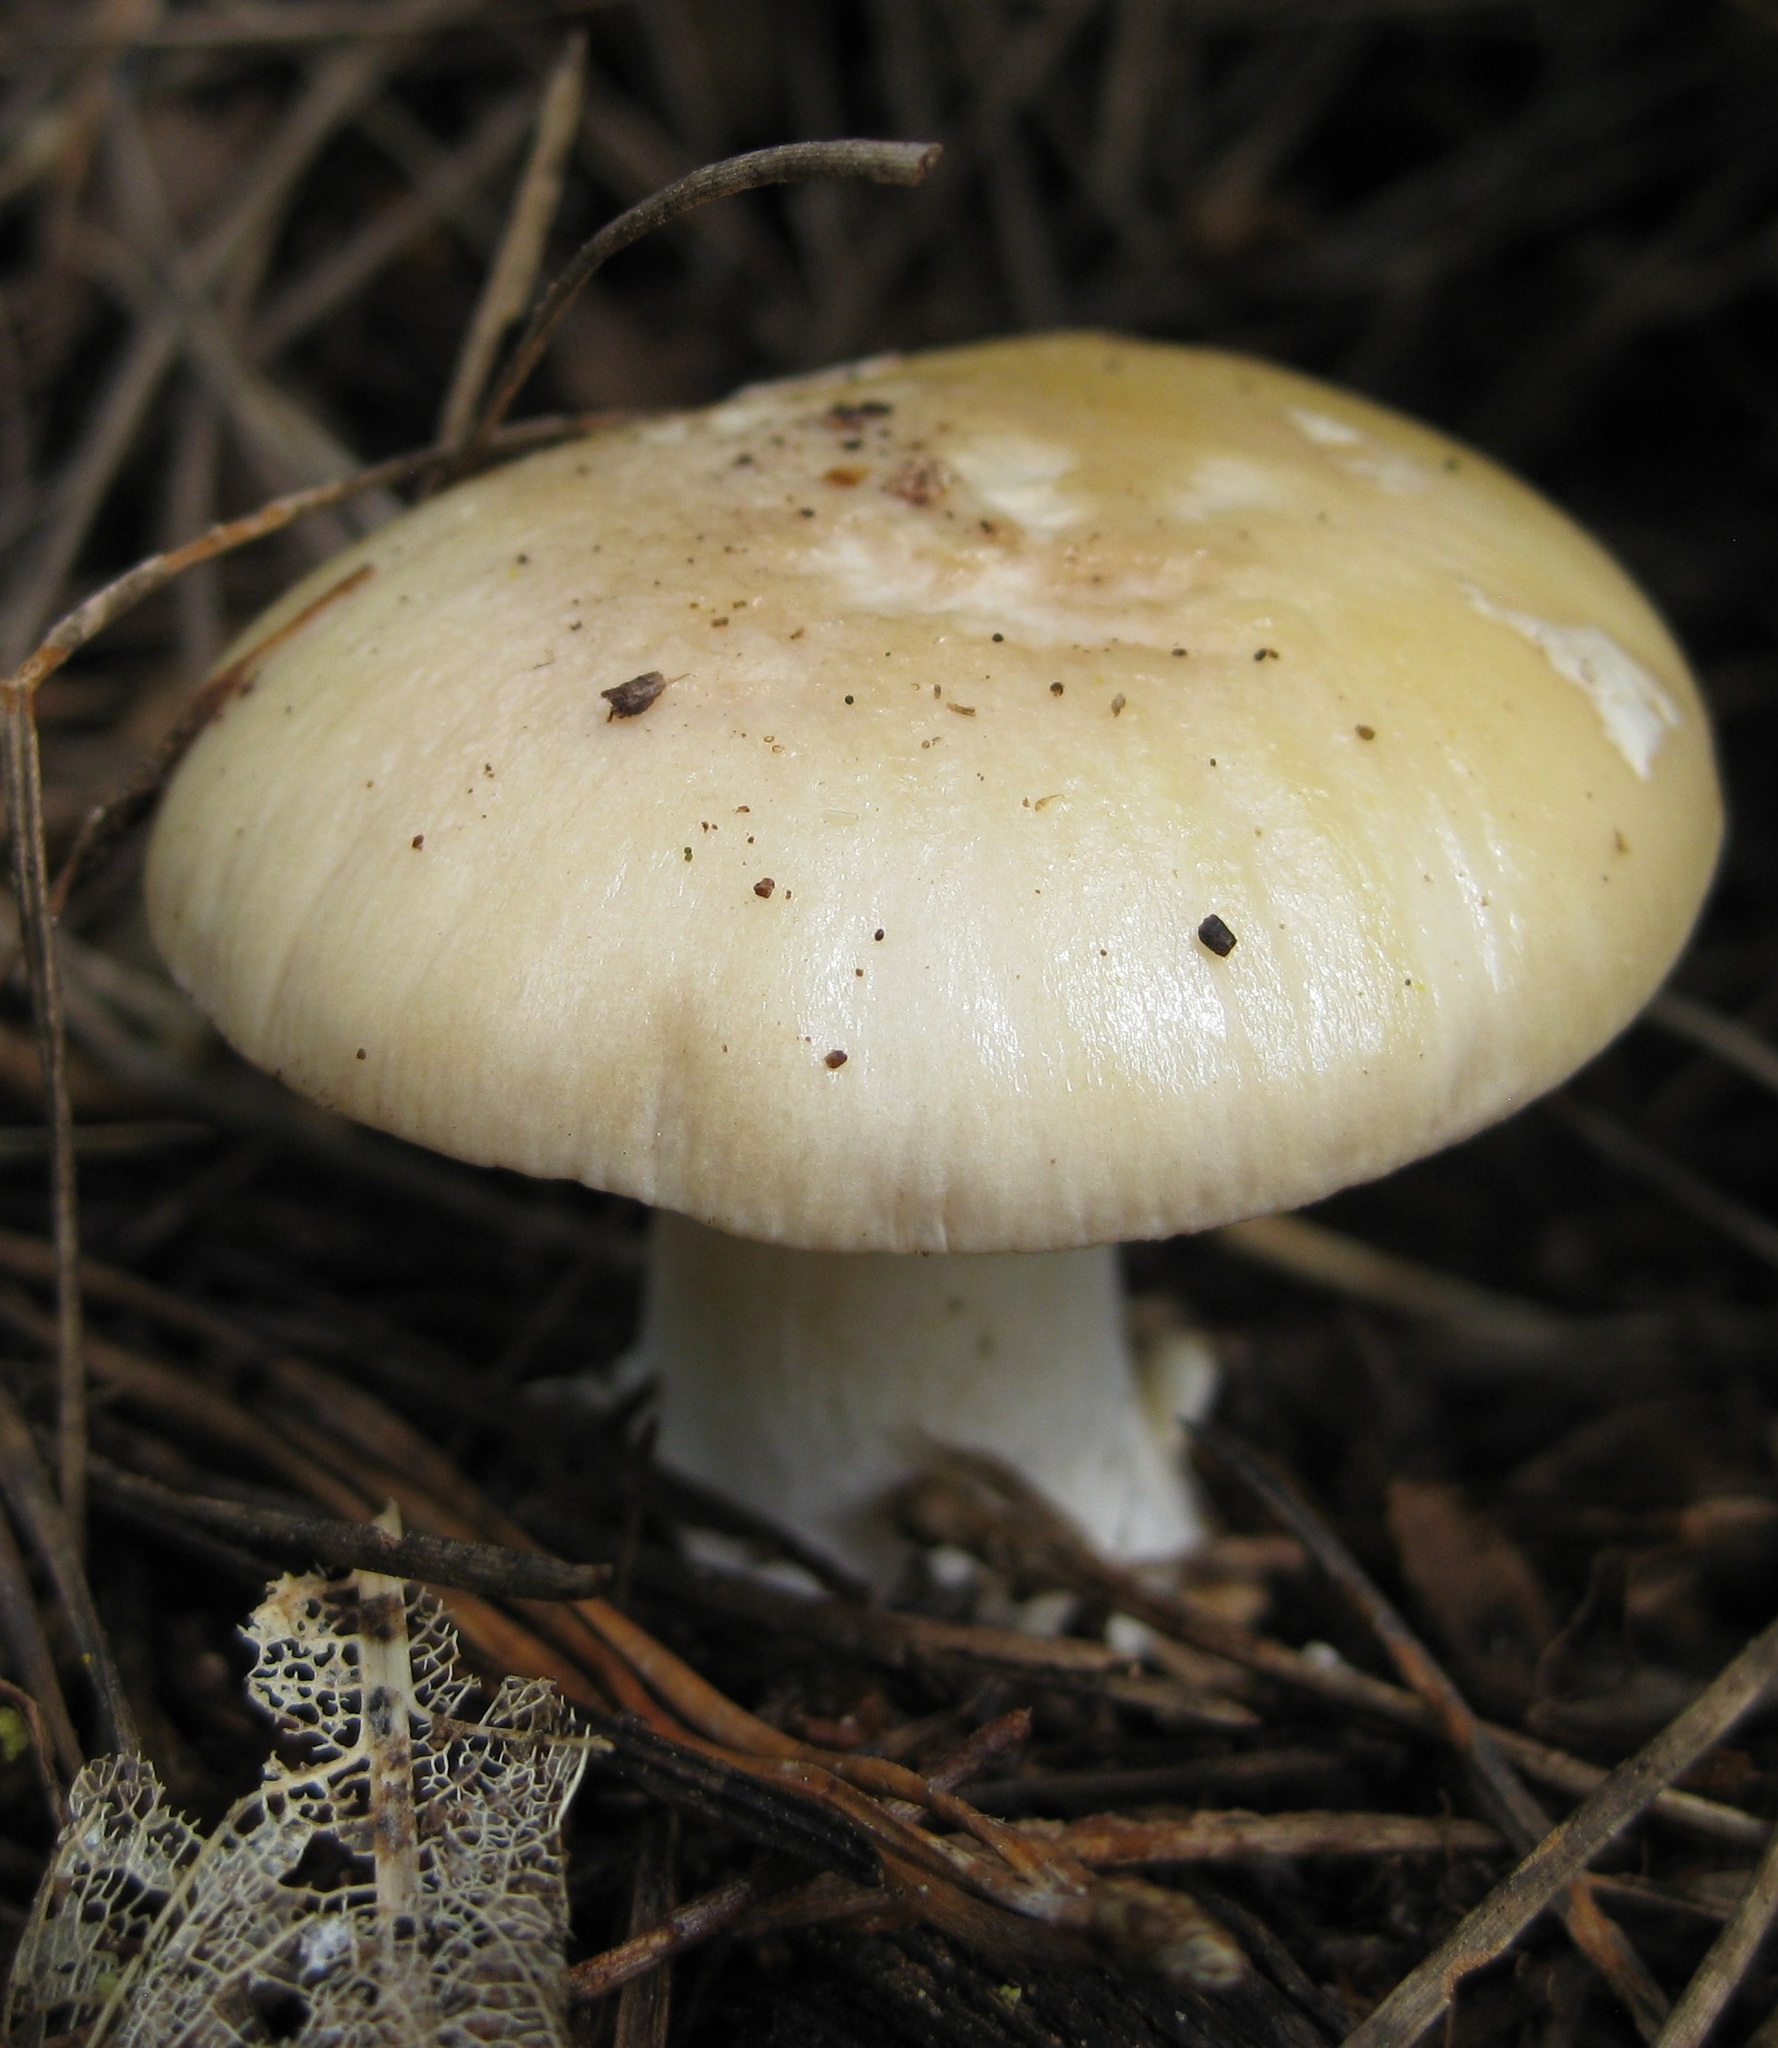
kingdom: Fungi
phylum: Basidiomycota
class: Agaricomycetes
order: Agaricales
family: Amanitaceae
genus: Amanita
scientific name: Amanita gemmata
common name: Jewelled amanita
